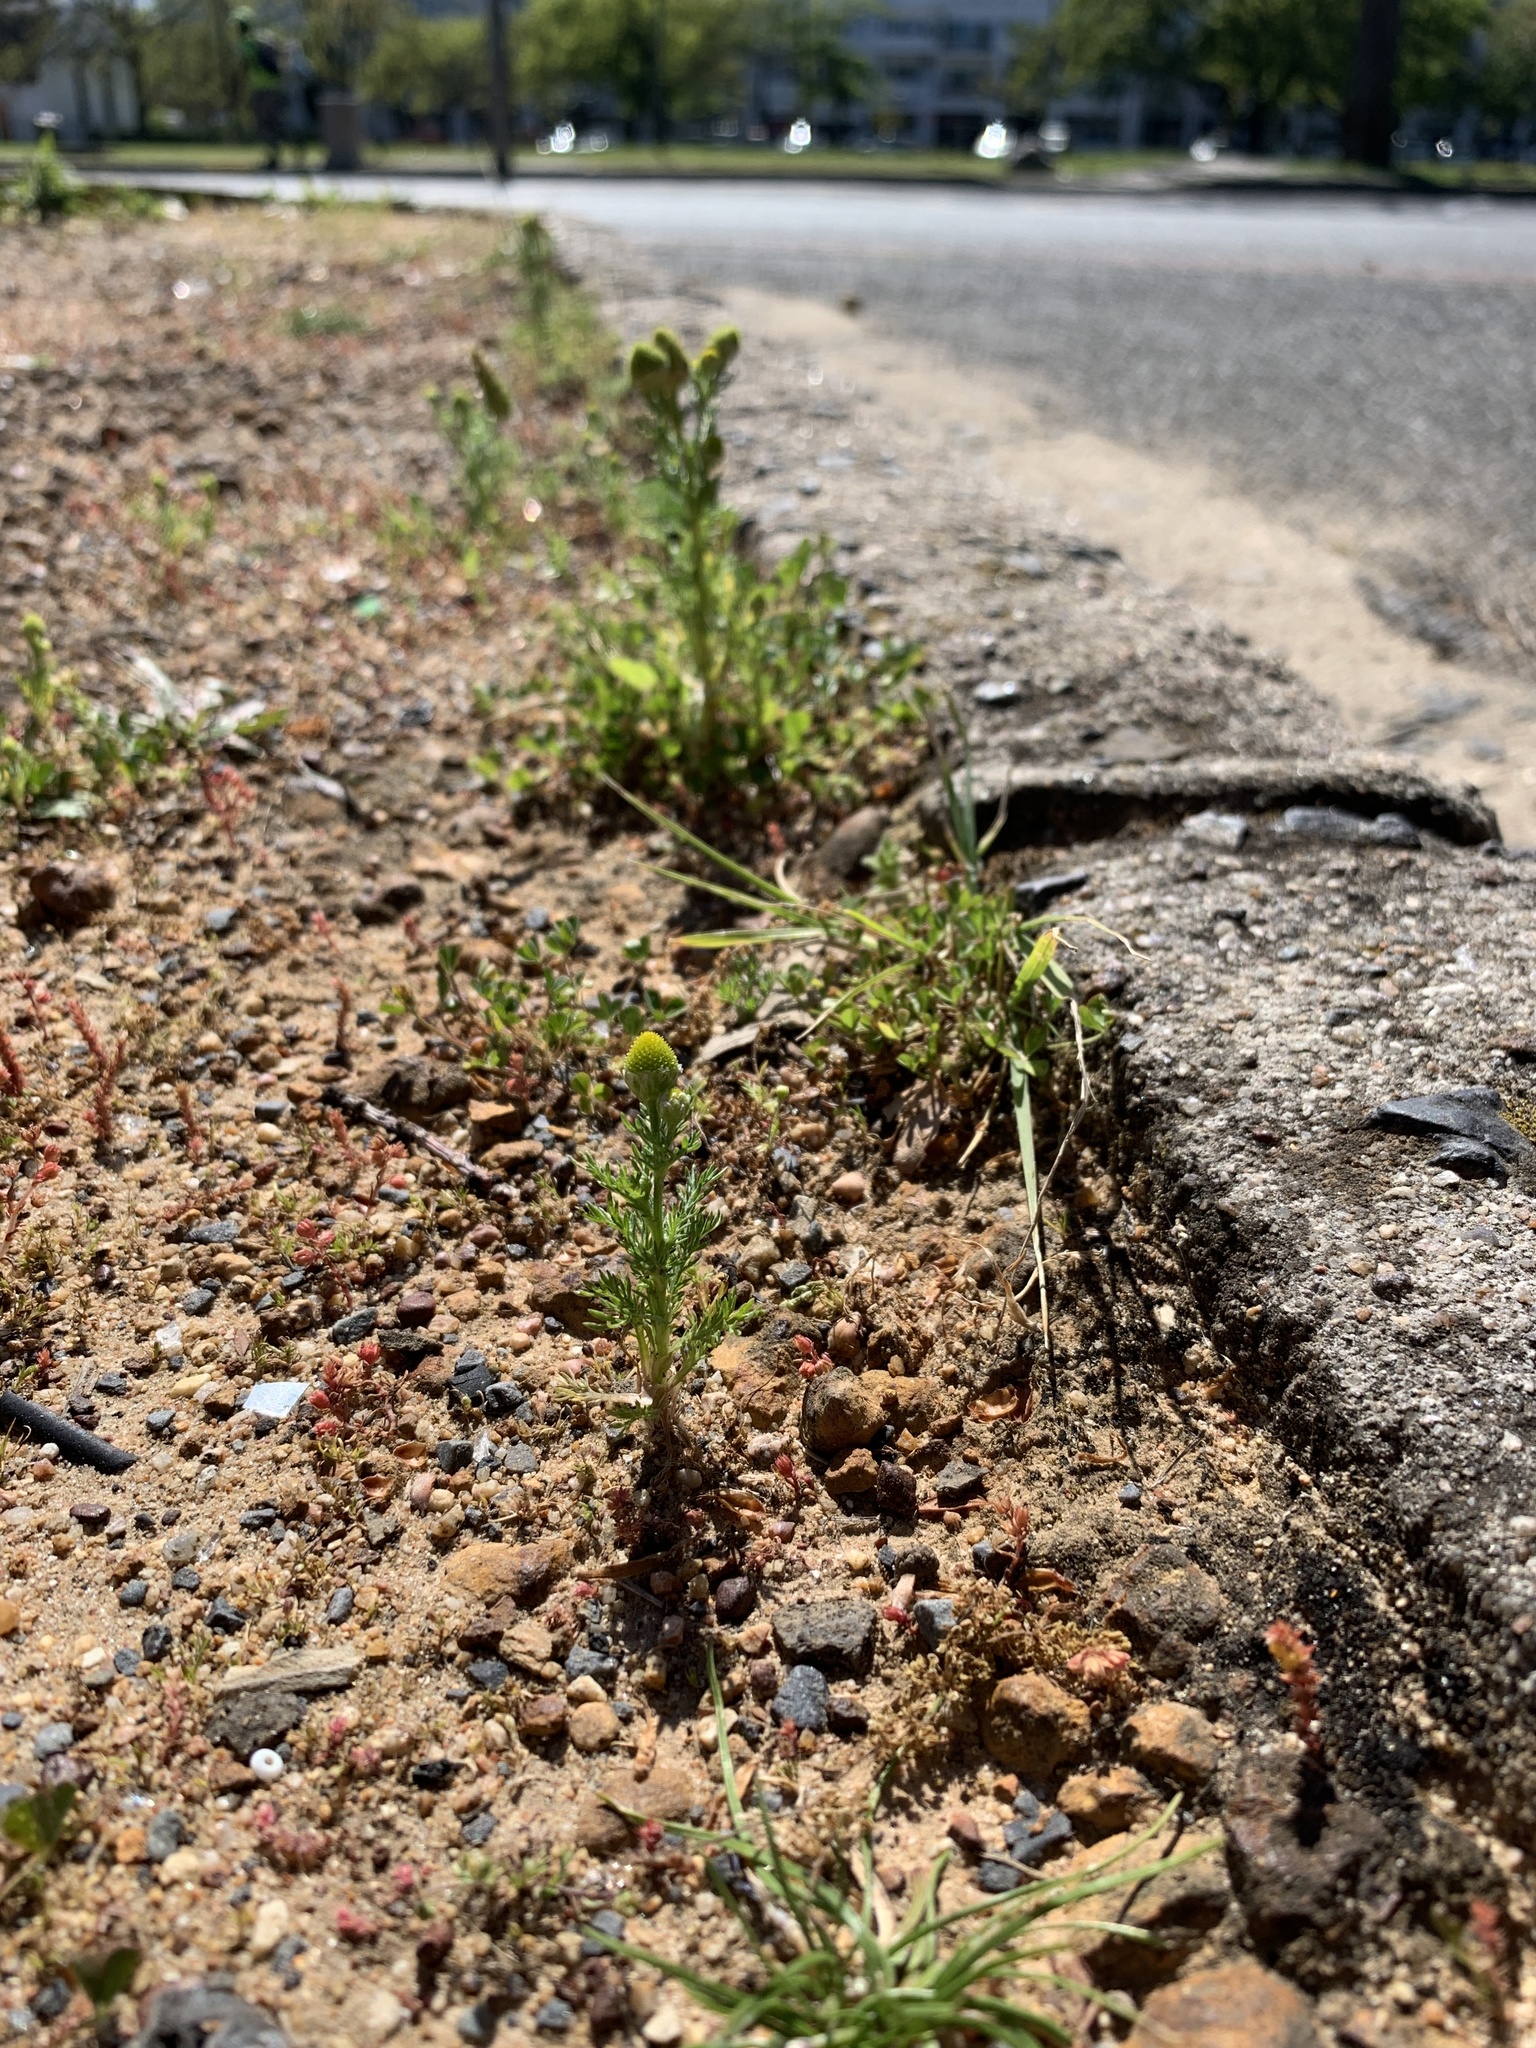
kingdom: Plantae
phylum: Tracheophyta
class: Magnoliopsida
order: Asterales
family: Asteraceae
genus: Matricaria
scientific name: Matricaria discoidea
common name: Disc mayweed
